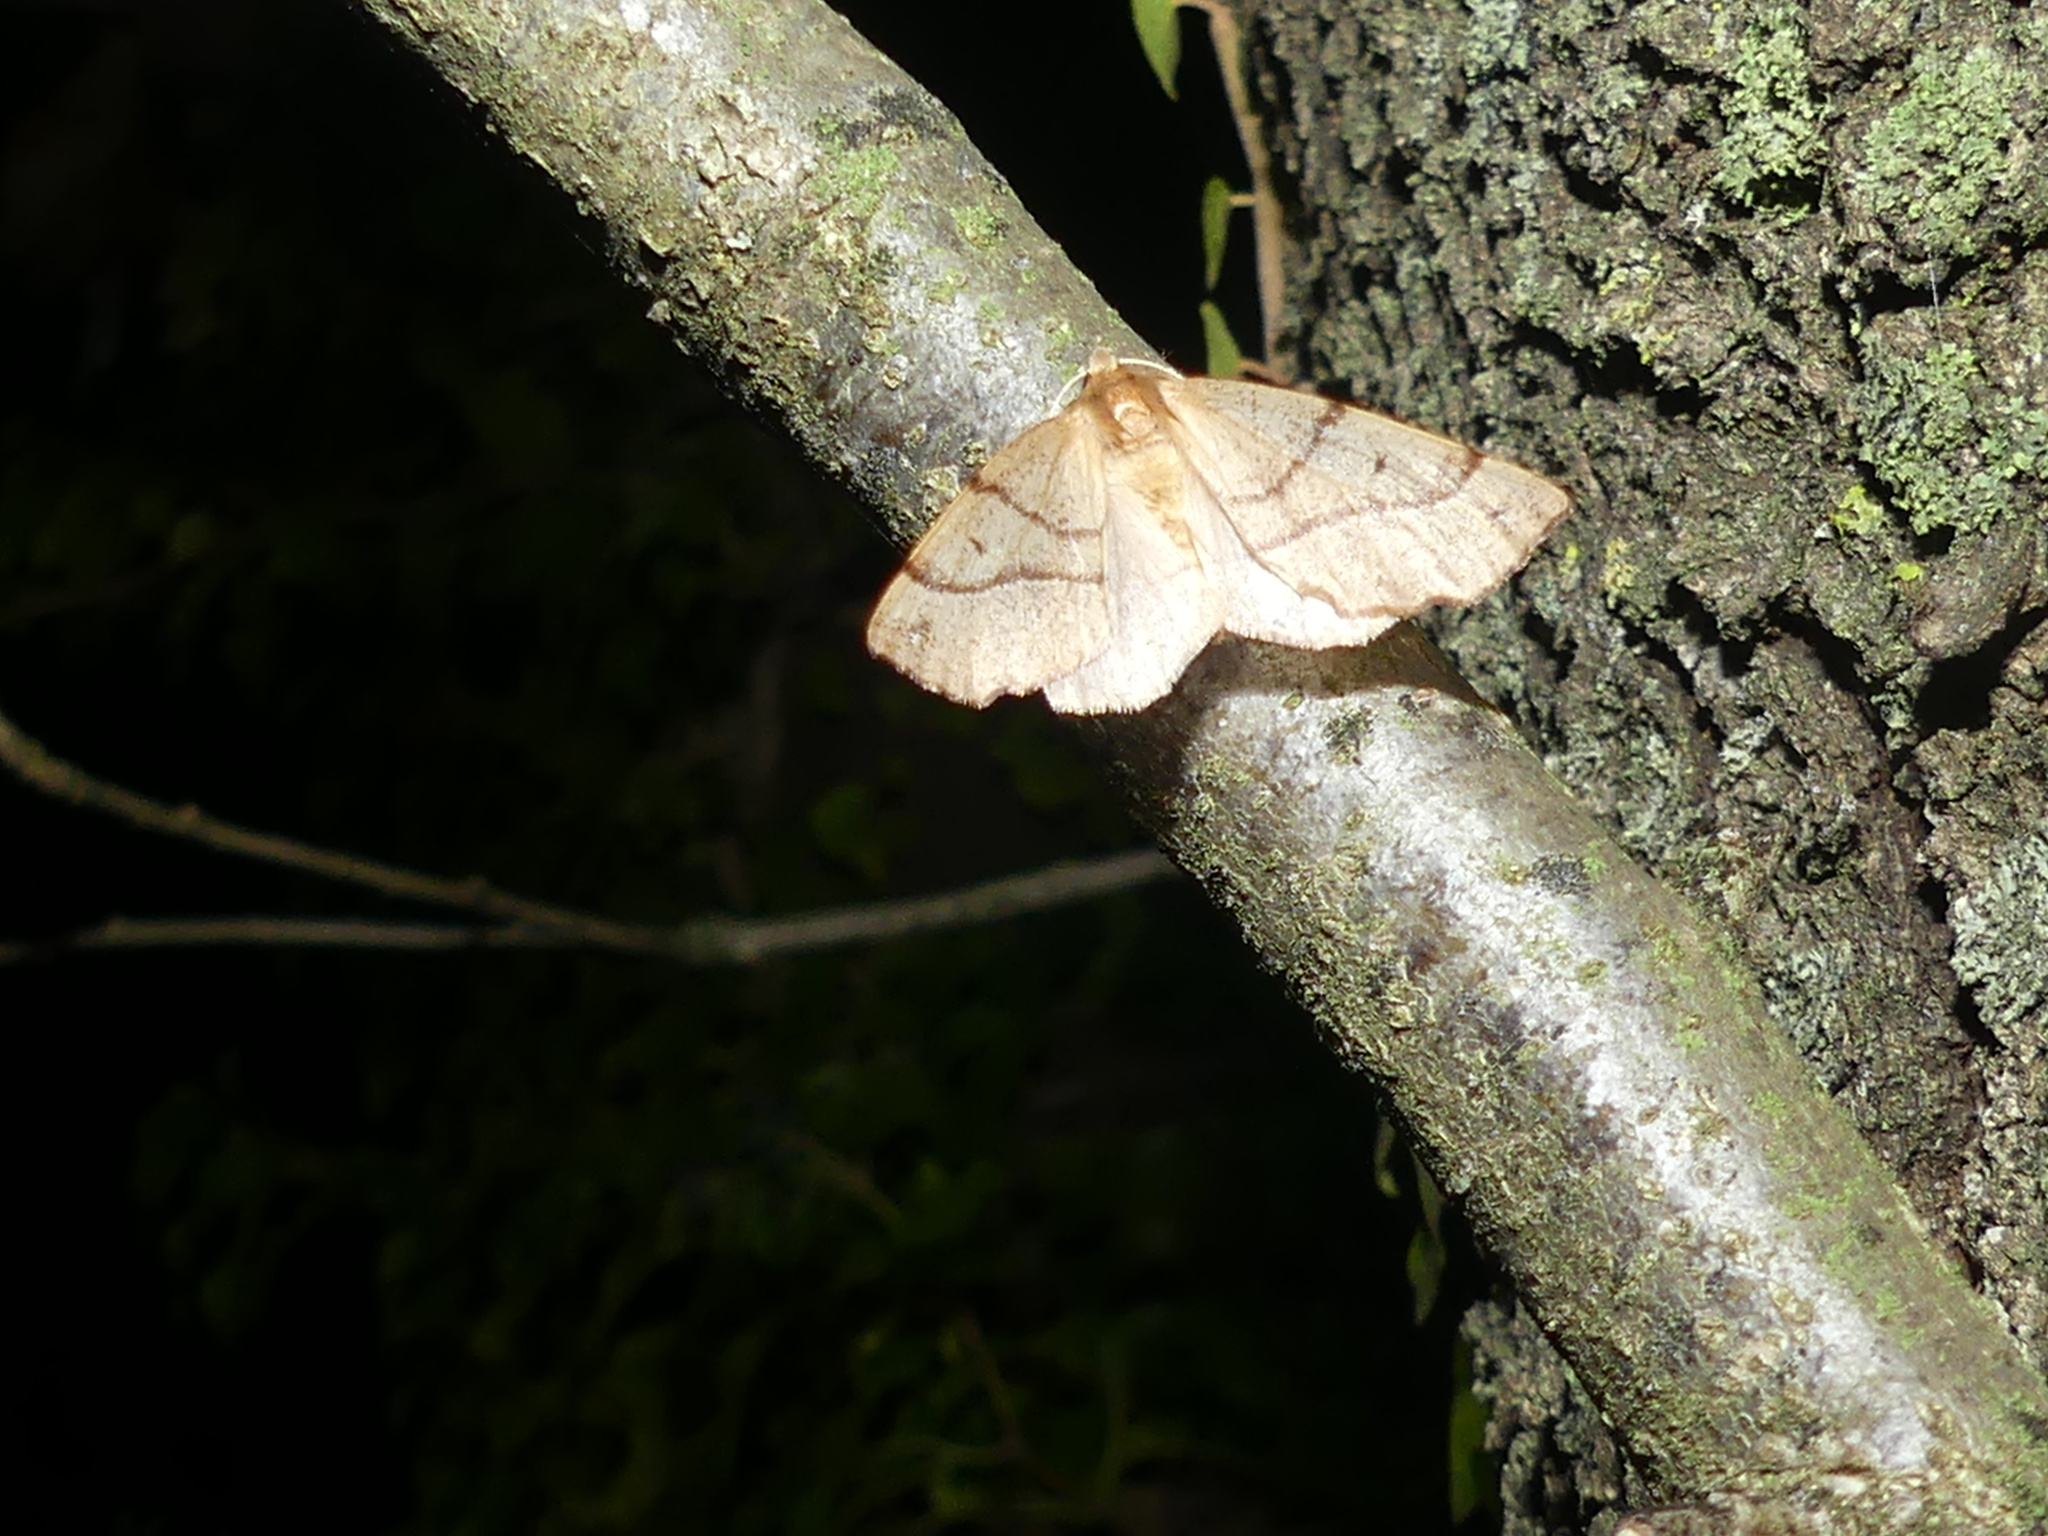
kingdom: Animalia
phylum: Arthropoda
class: Insecta
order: Lepidoptera
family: Geometridae
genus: Colotois
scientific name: Colotois pennaria
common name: Feathered thorn
